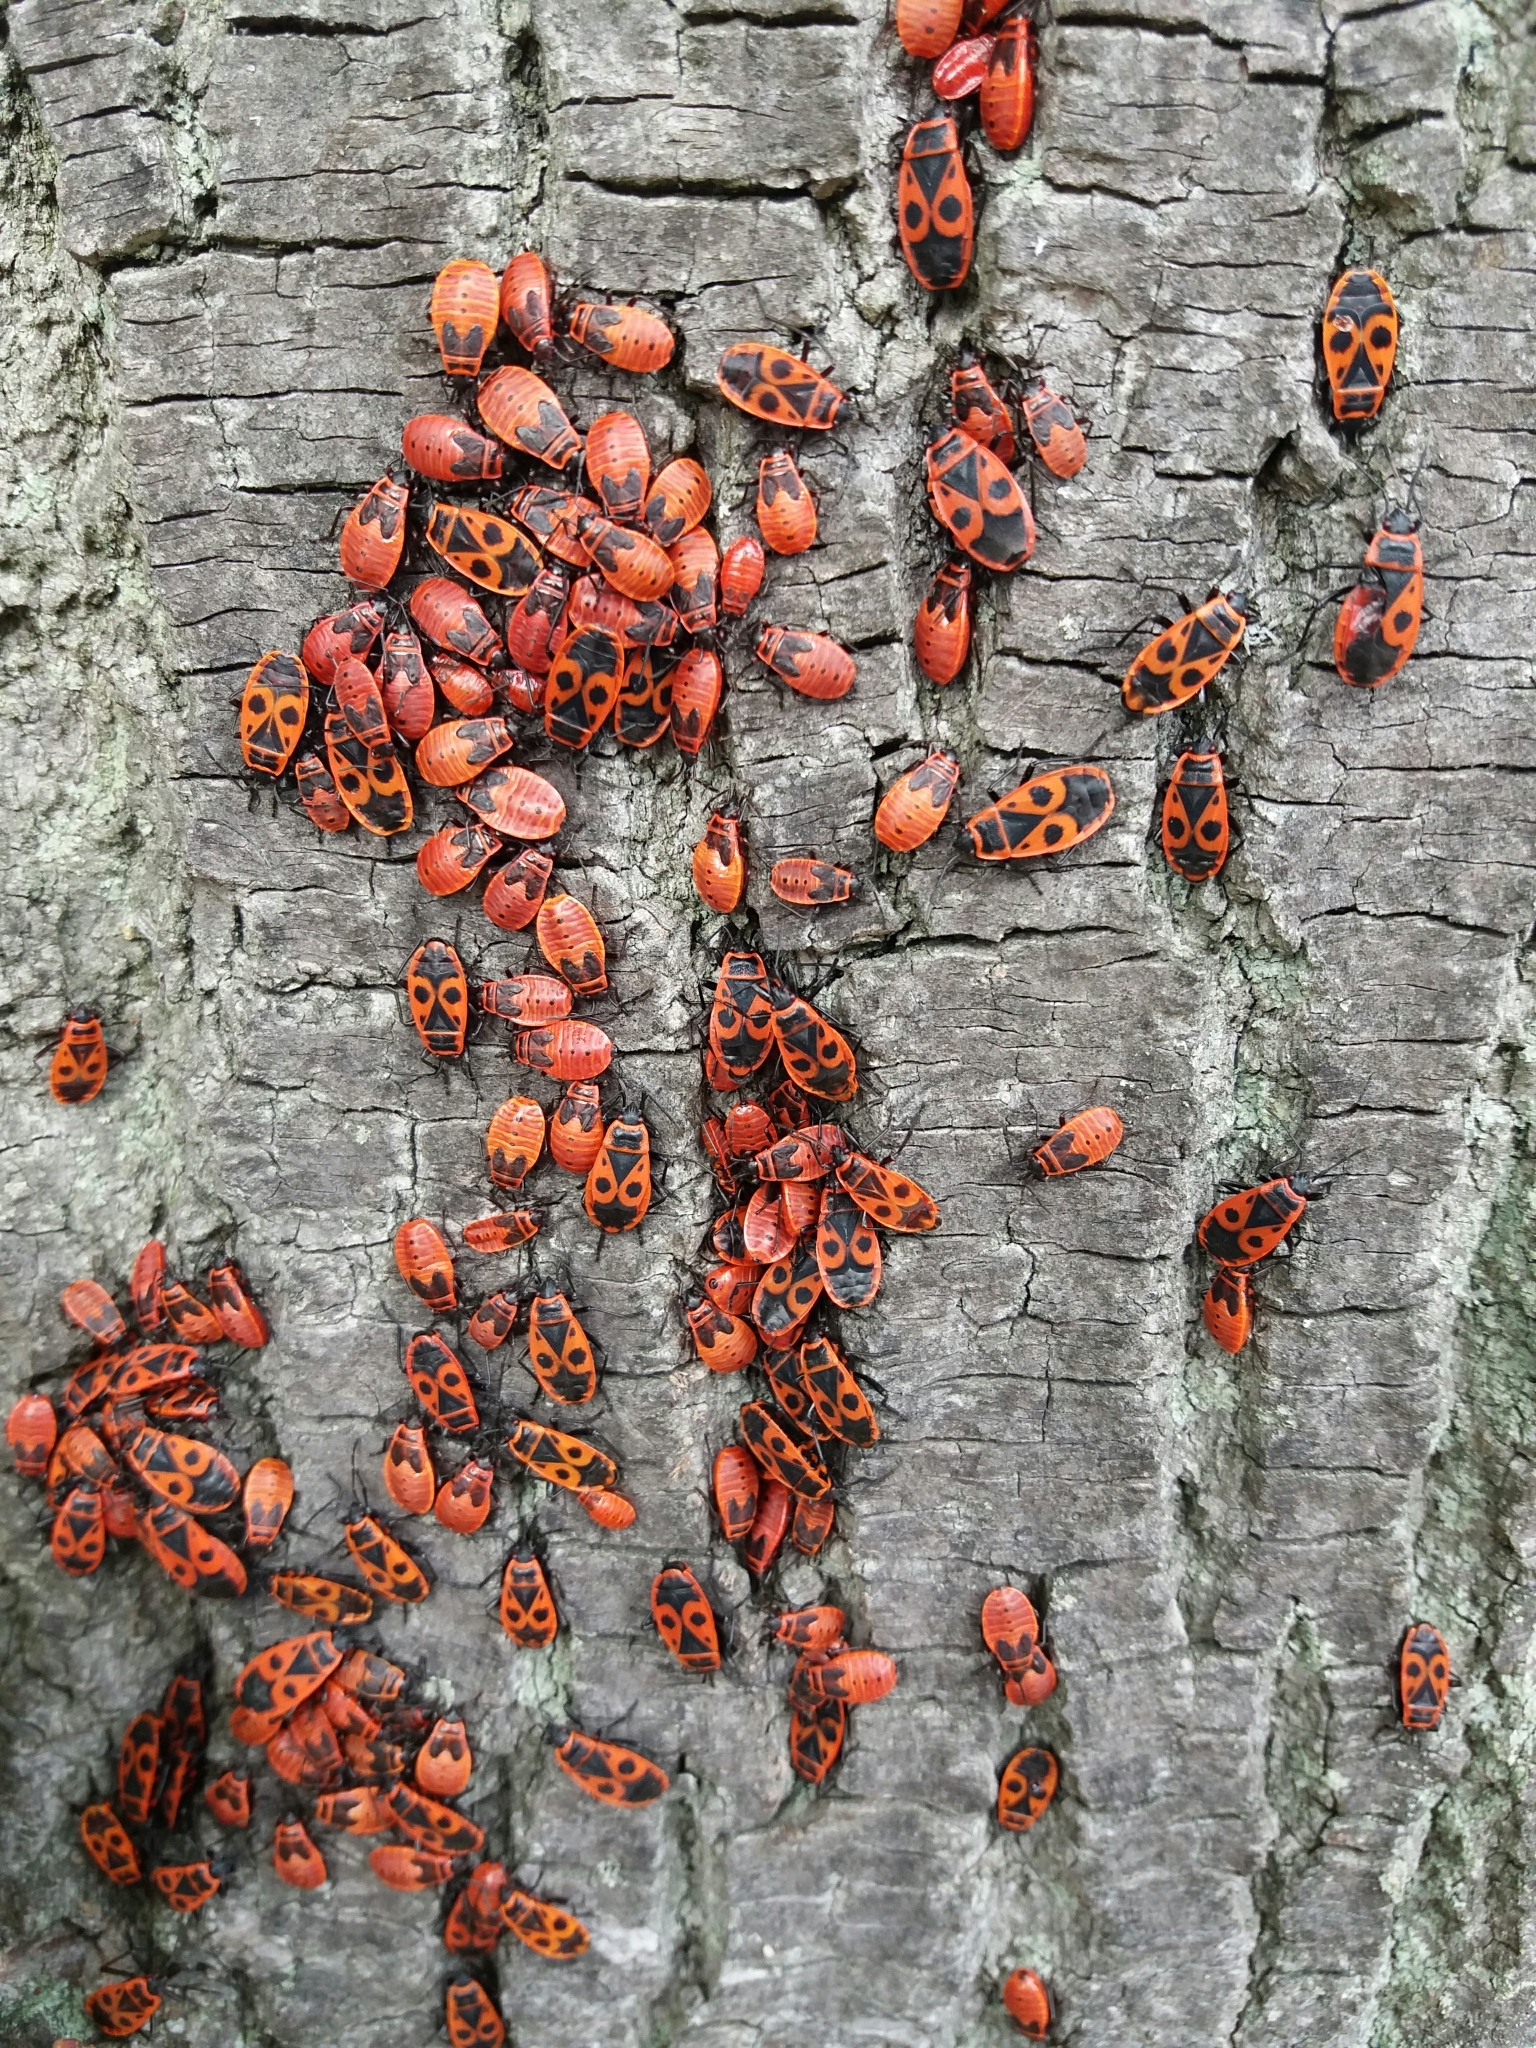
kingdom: Animalia
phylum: Arthropoda
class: Insecta
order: Hemiptera
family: Pyrrhocoridae
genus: Pyrrhocoris
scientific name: Pyrrhocoris apterus
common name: Firebug
